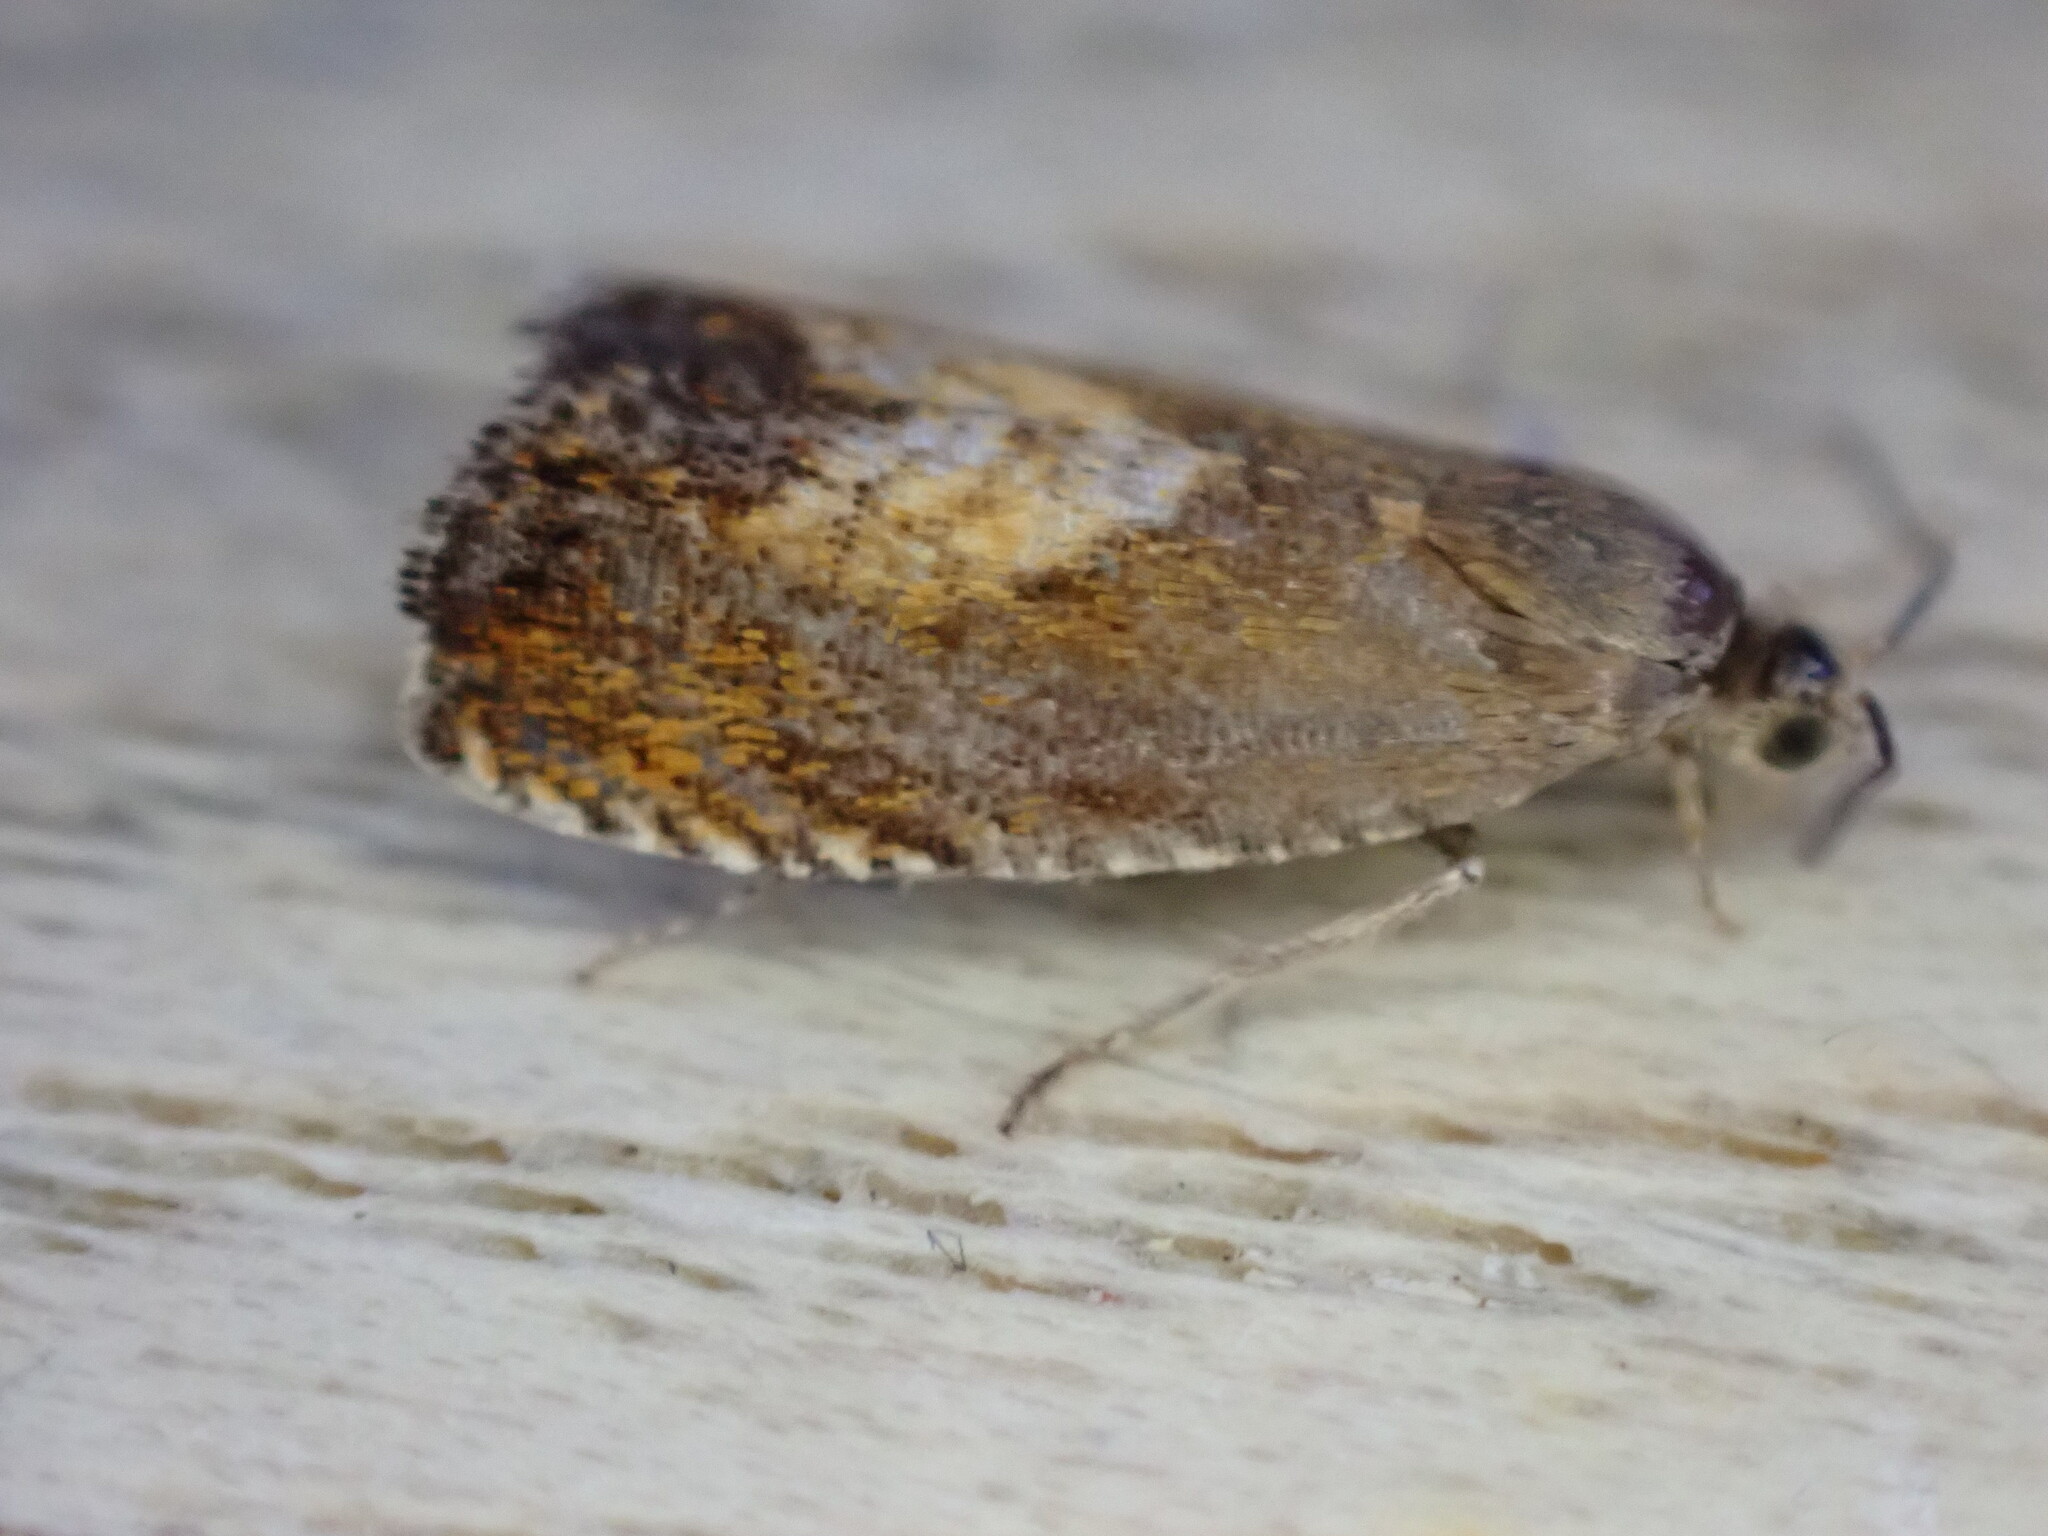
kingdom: Animalia
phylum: Arthropoda
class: Insecta
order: Lepidoptera
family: Tortricidae
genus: Dichrorampha
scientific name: Dichrorampha acuminatana
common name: Sharp-winged drill
